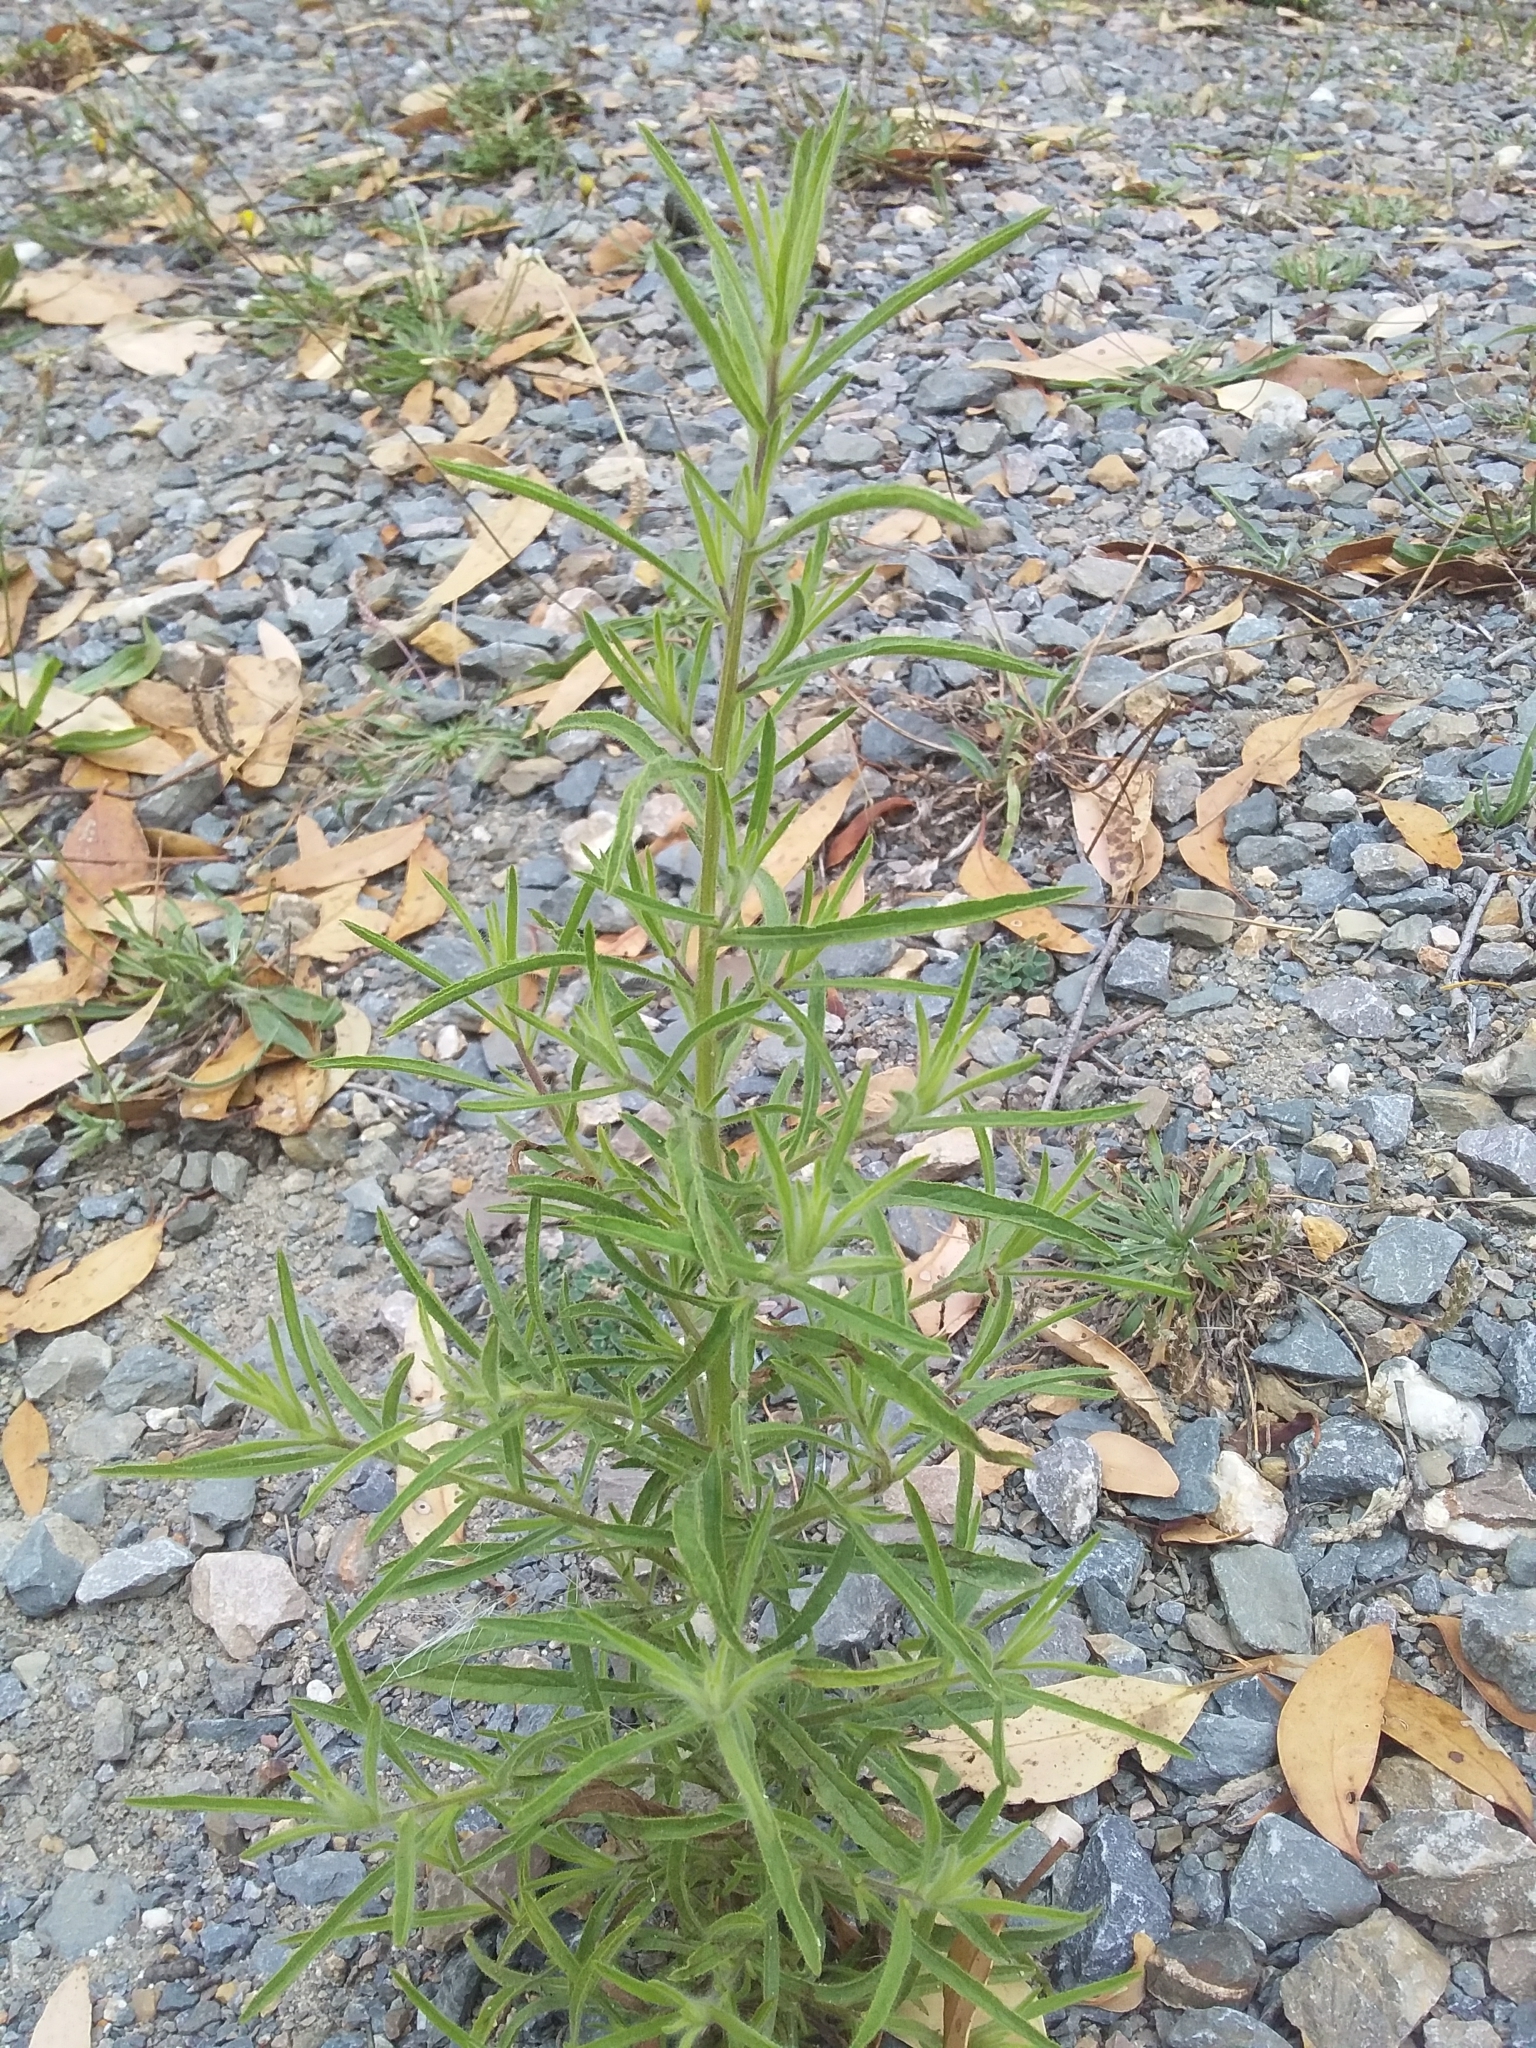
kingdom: Plantae
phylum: Tracheophyta
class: Magnoliopsida
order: Asterales
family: Asteraceae
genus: Dittrichia
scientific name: Dittrichia graveolens
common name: Stinking fleabane
